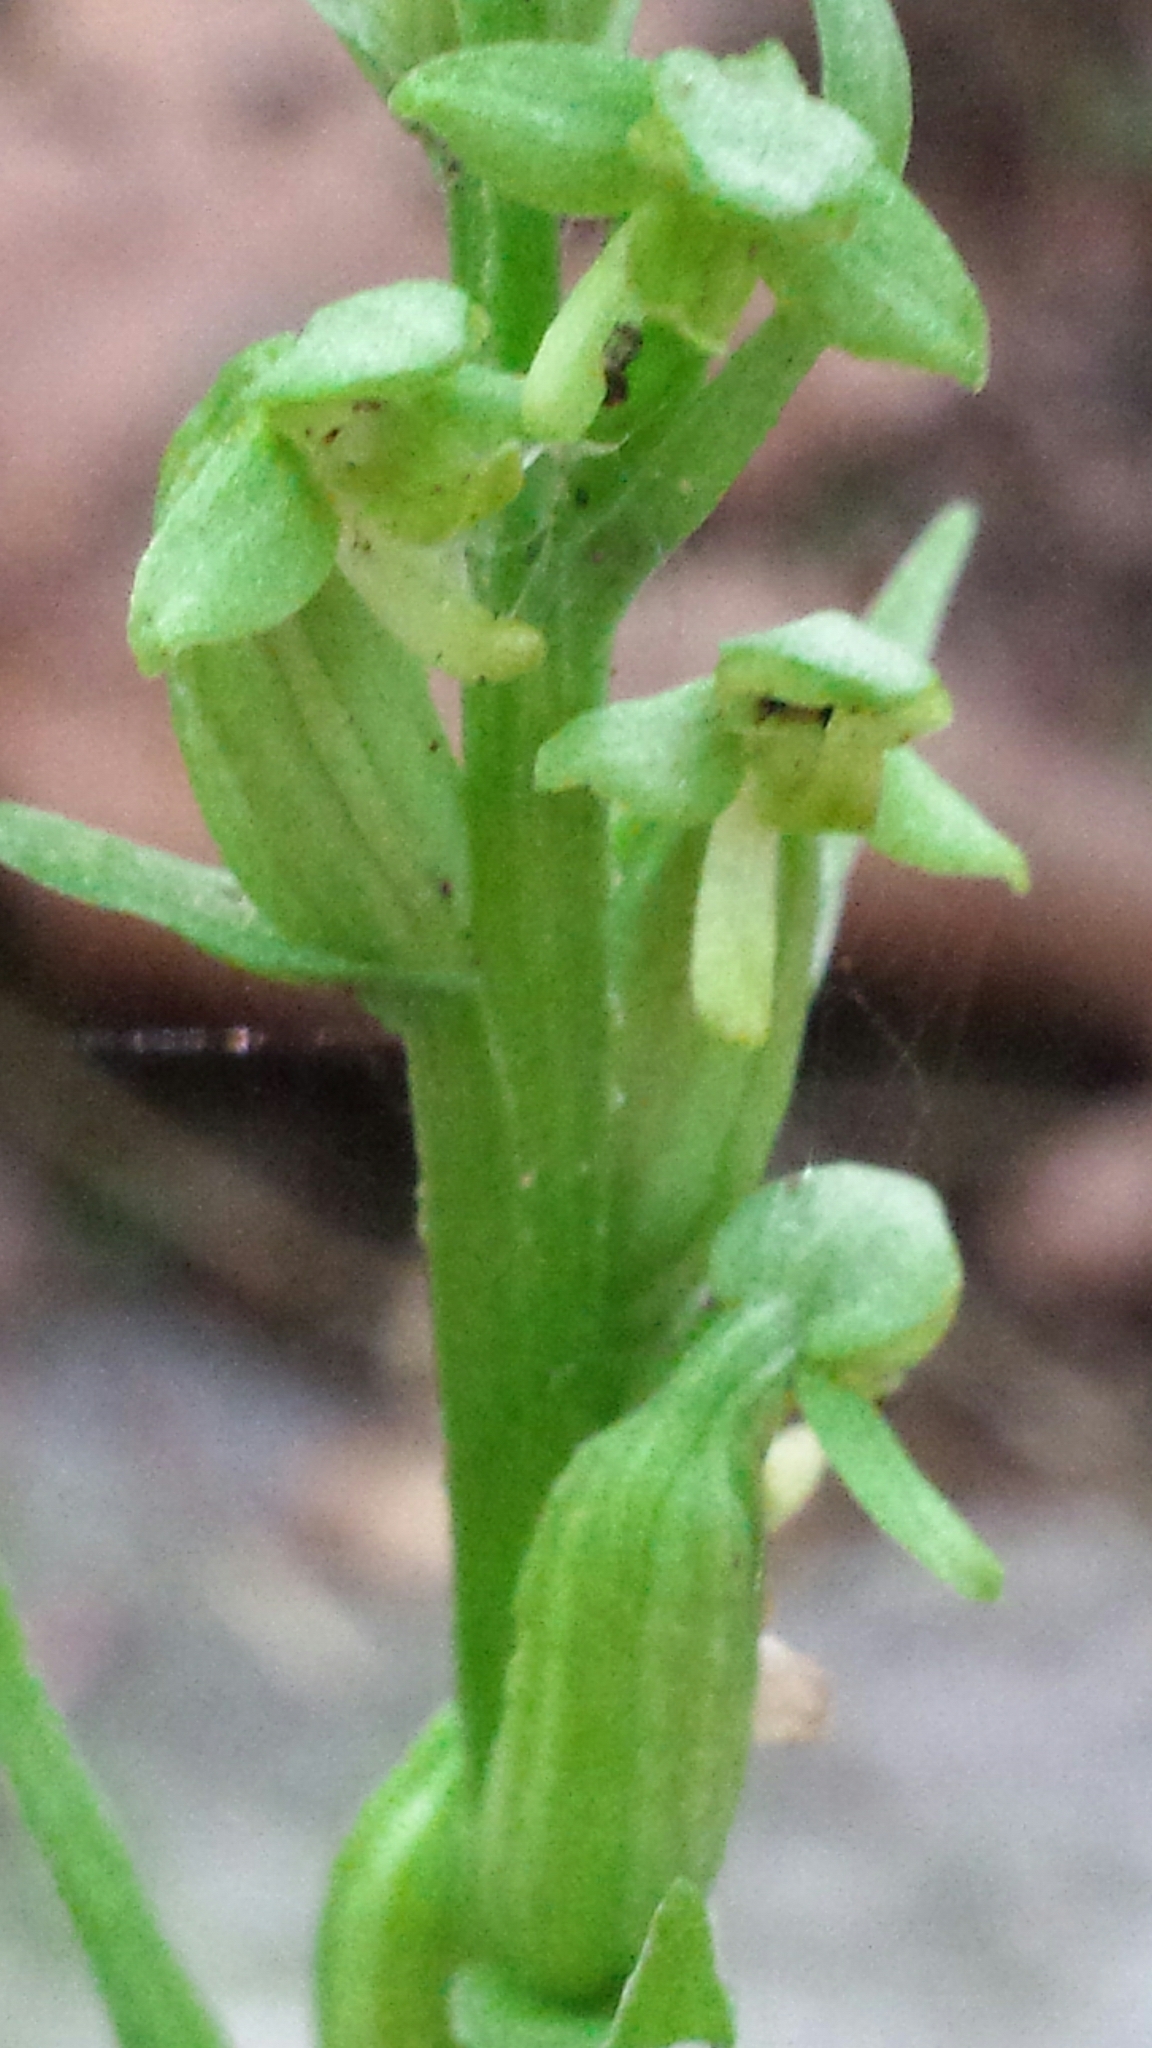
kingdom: Plantae
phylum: Tracheophyta
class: Liliopsida
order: Asparagales
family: Orchidaceae
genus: Platanthera
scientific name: Platanthera aquilonis
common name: Northern green orchid
